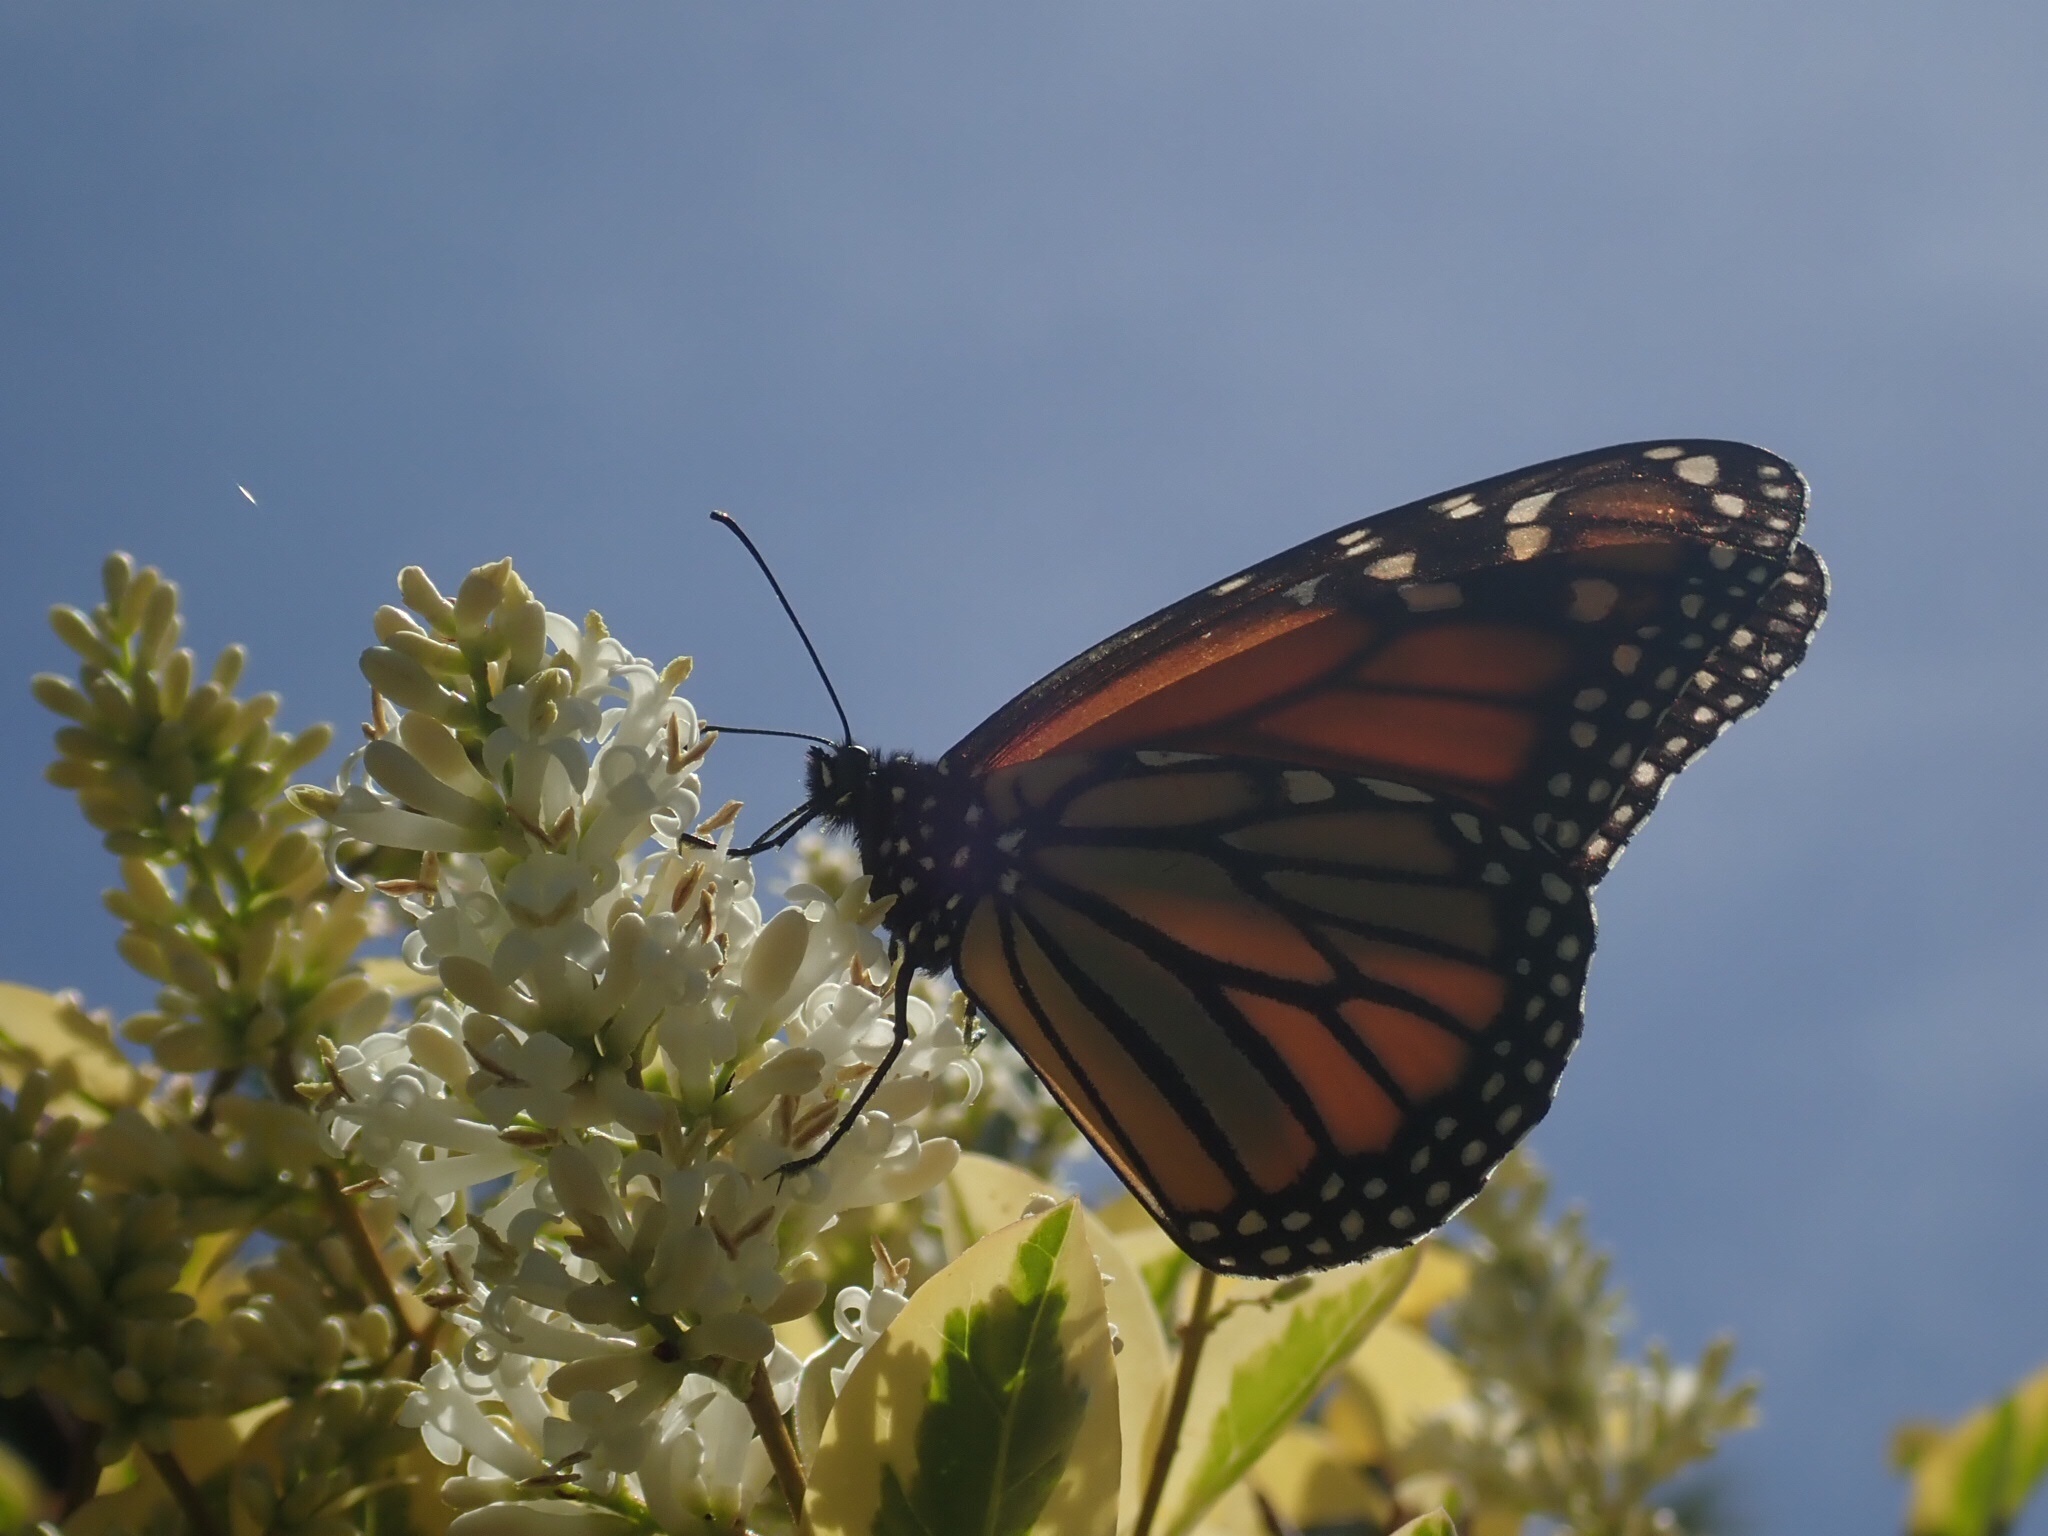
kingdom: Animalia
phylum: Arthropoda
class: Insecta
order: Lepidoptera
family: Nymphalidae
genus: Danaus
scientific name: Danaus plexippus
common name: Monarch
